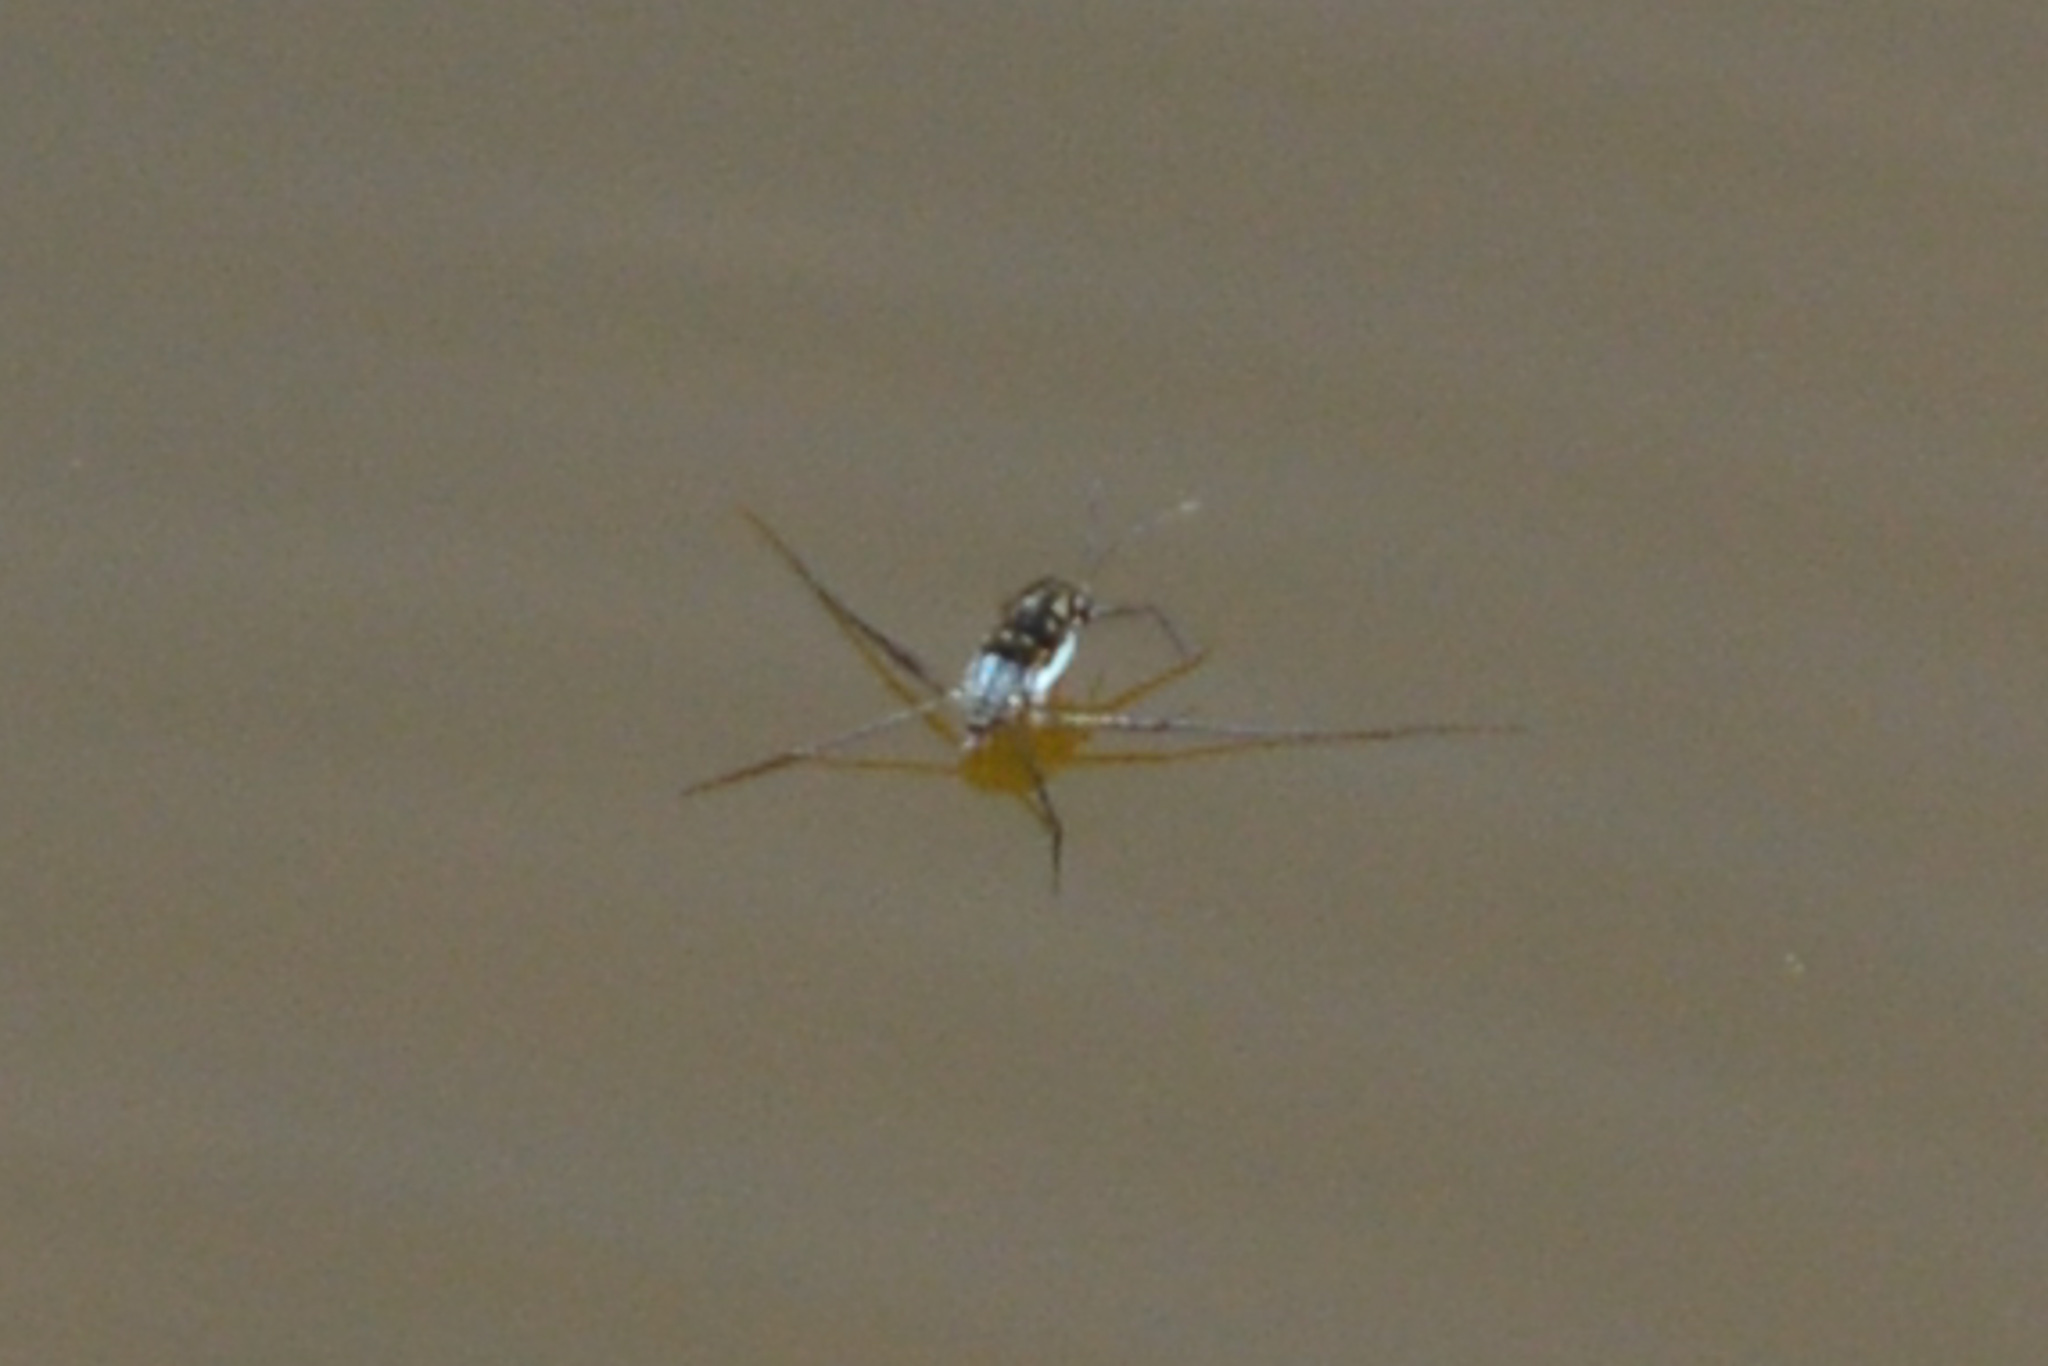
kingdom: Animalia
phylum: Arthropoda
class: Insecta
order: Hemiptera
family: Gerridae
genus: Trepobates
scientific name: Trepobates
